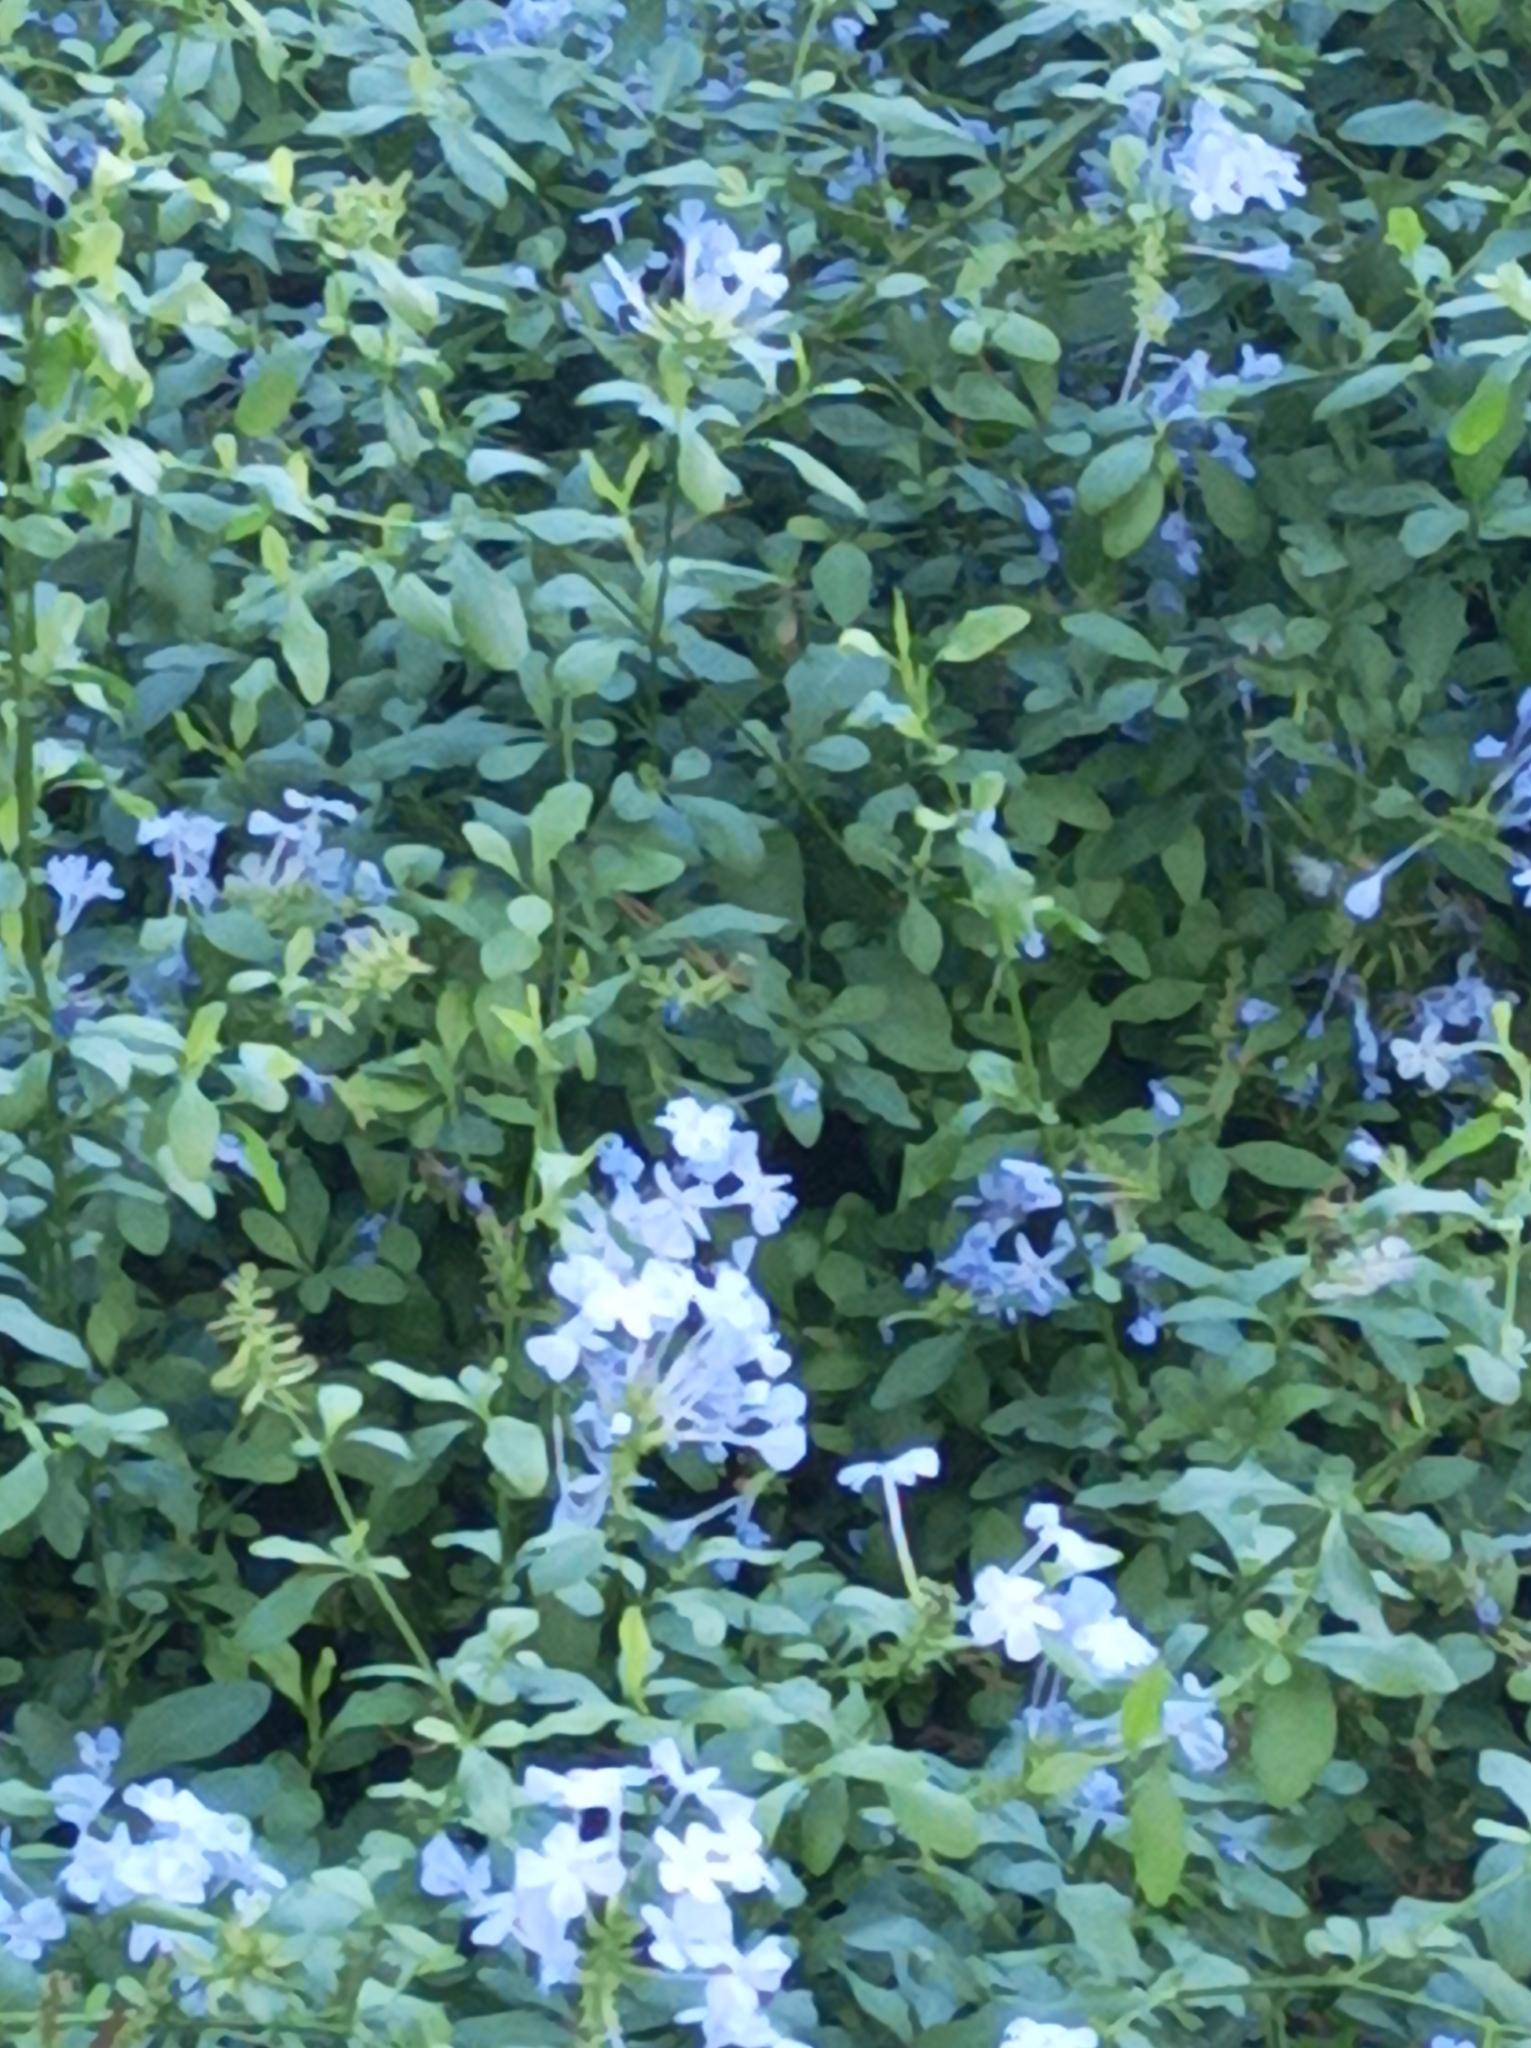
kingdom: Plantae
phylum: Tracheophyta
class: Magnoliopsida
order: Caryophyllales
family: Plumbaginaceae
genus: Plumbago
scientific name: Plumbago auriculata
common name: Cape leadwort
